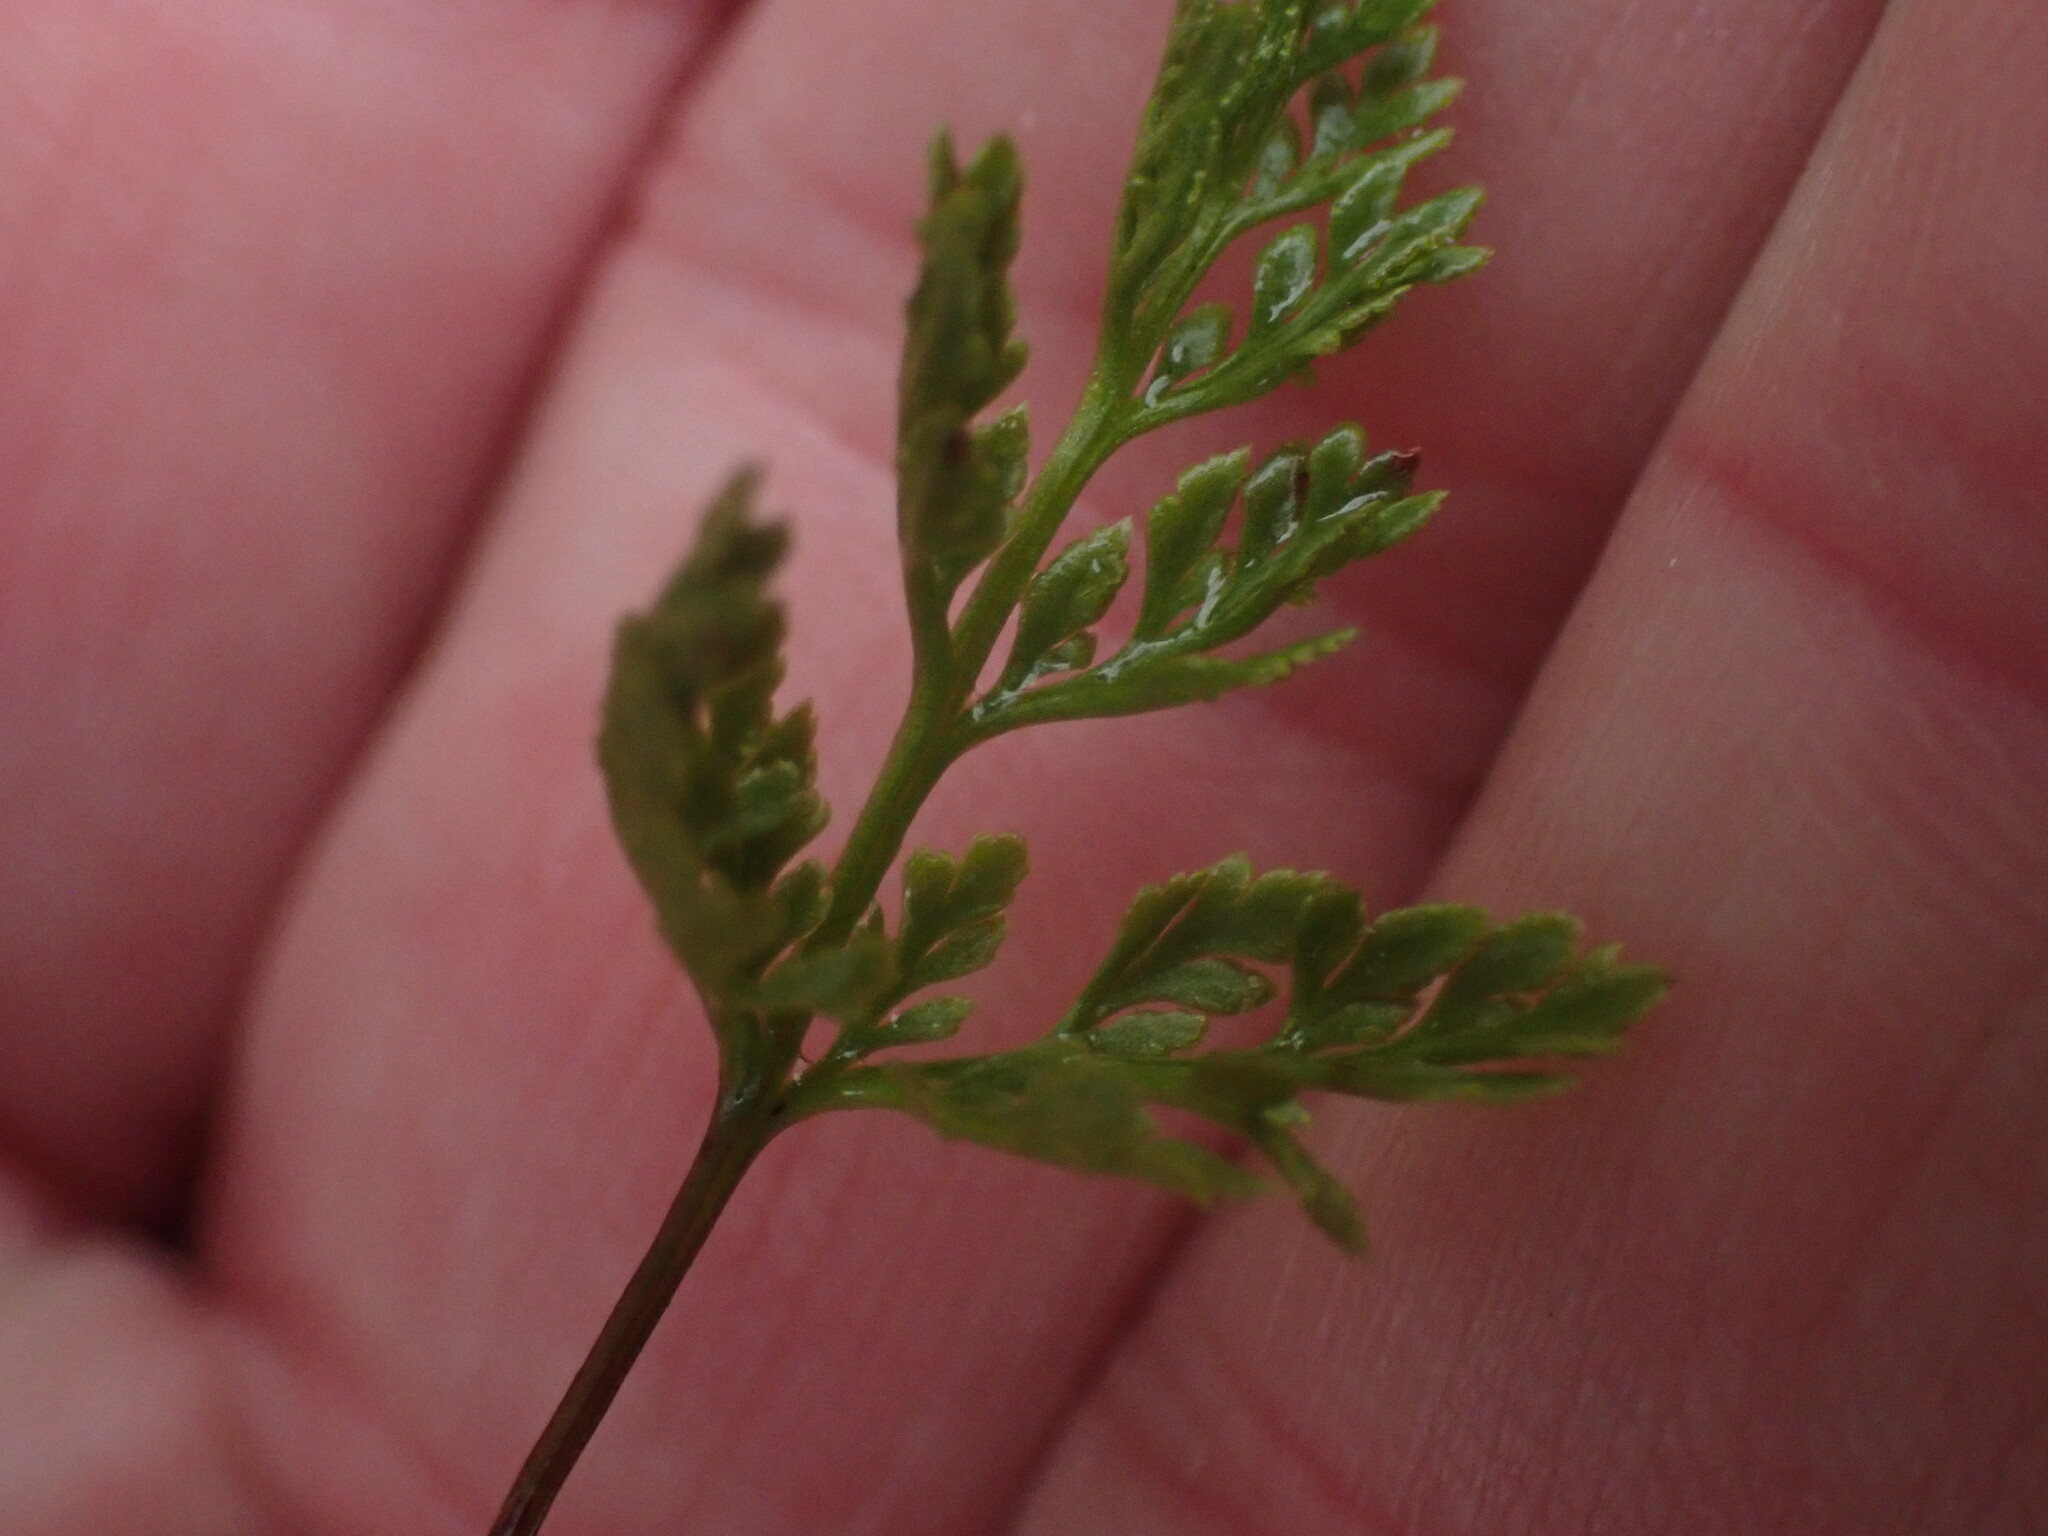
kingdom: Plantae
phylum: Tracheophyta
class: Polypodiopsida
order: Polypodiales
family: Pteridaceae
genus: Aspidotis
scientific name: Aspidotis densa
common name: Indian's dream
